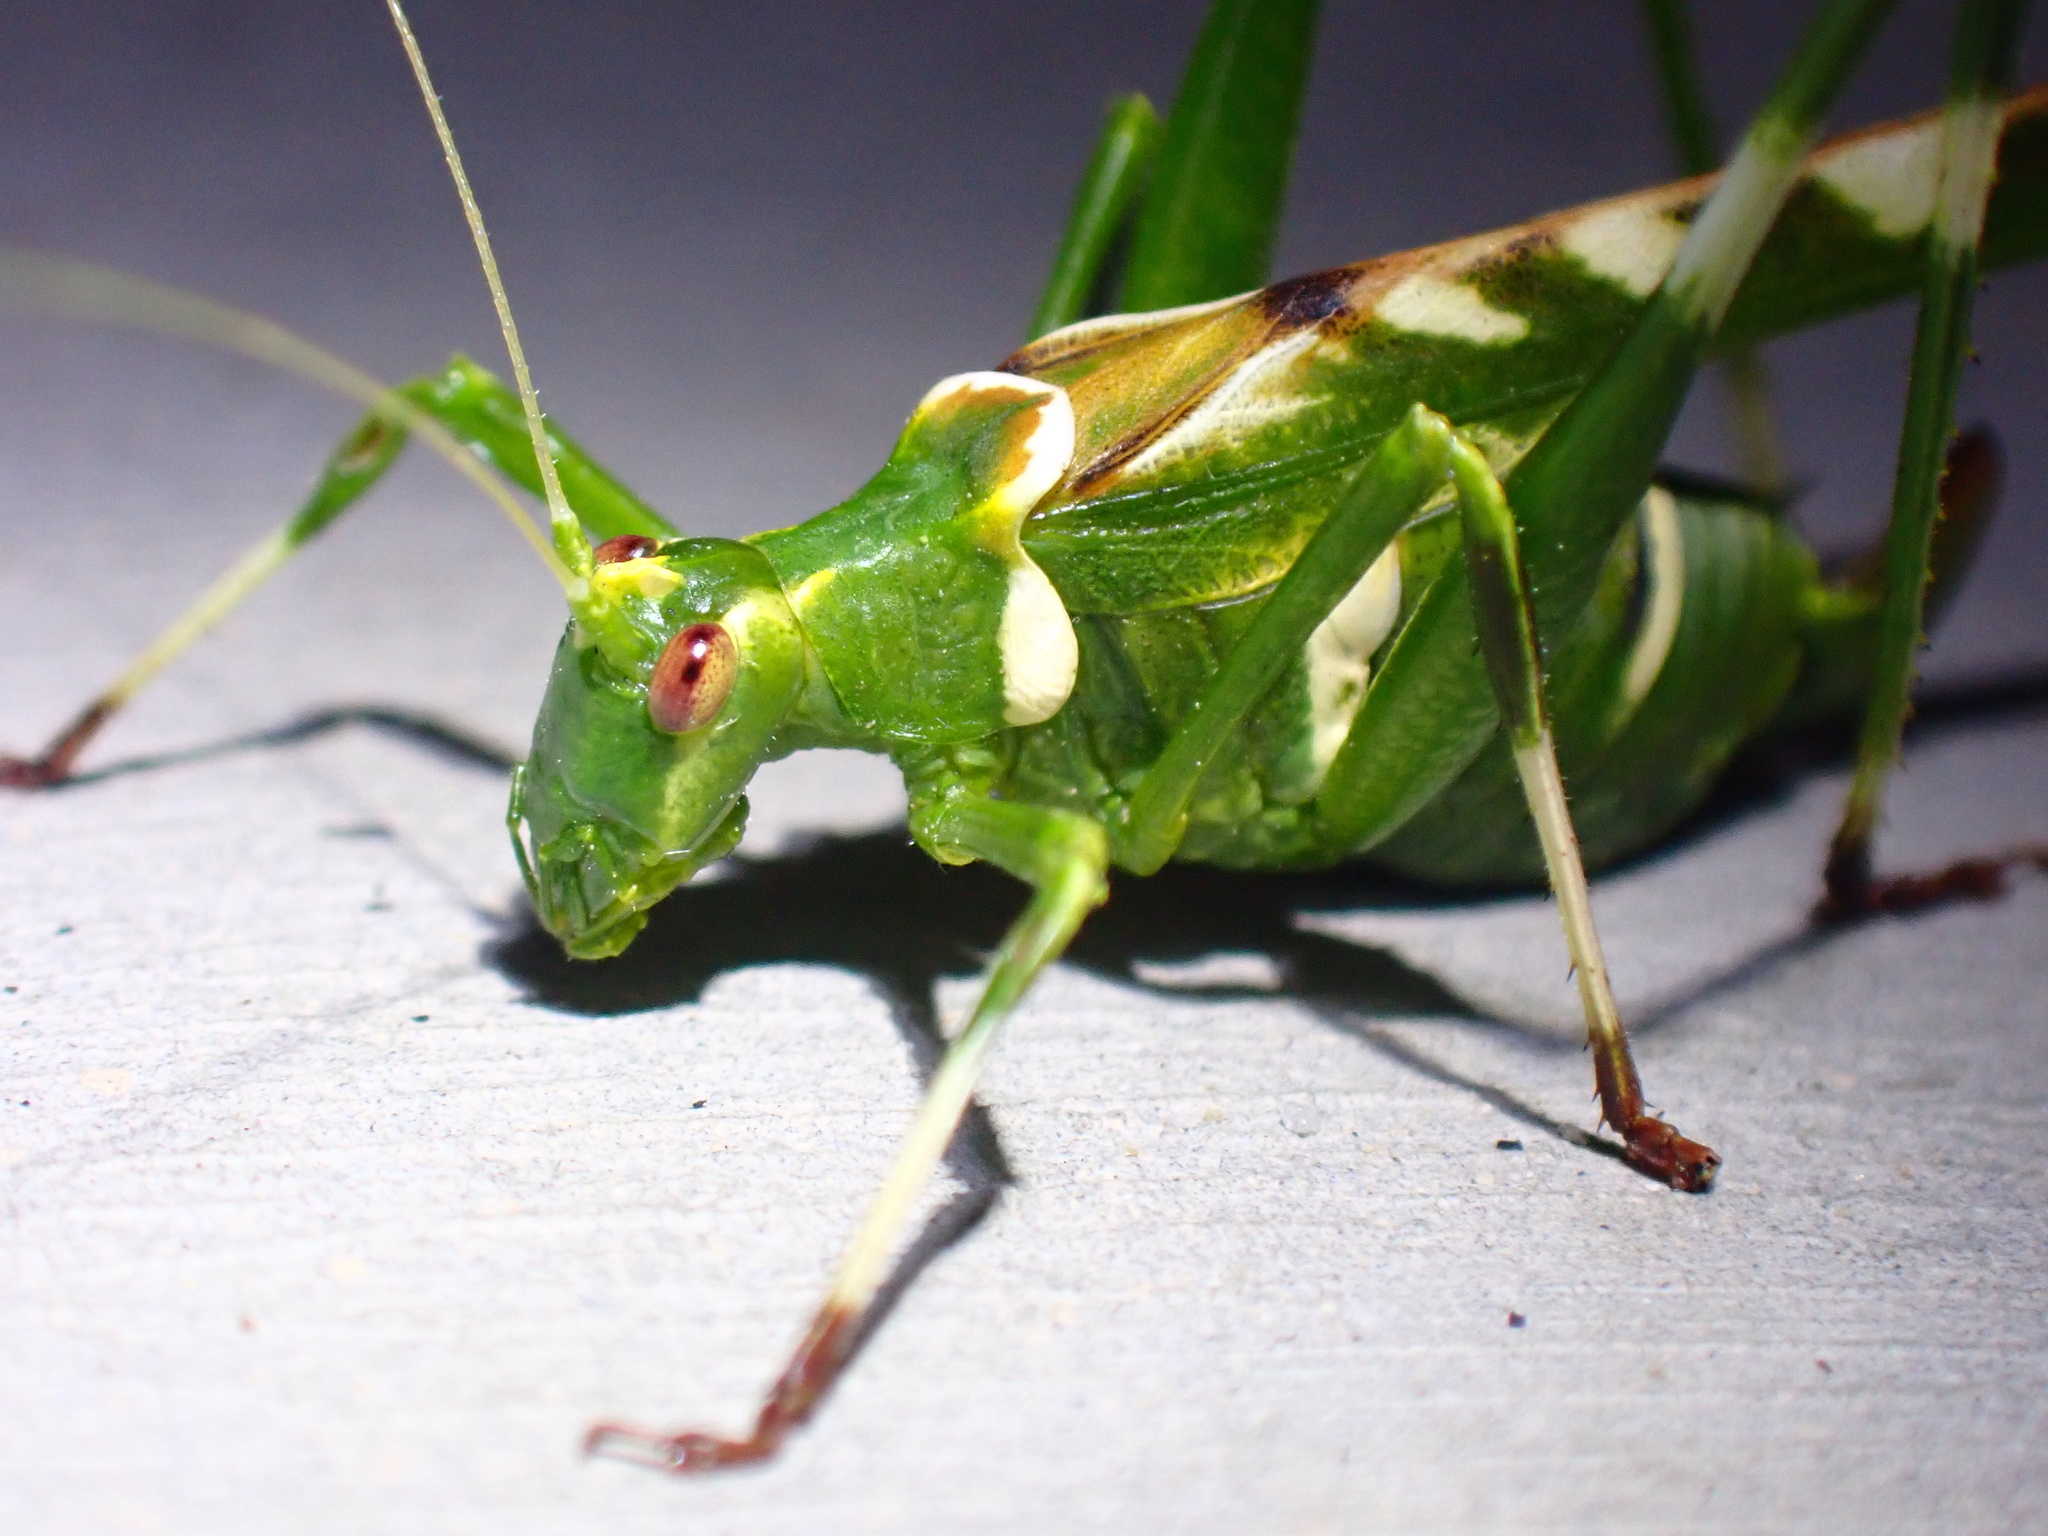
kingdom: Animalia
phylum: Arthropoda
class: Insecta
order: Orthoptera
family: Tettigoniidae
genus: Insara
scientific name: Insara covilleae
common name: Creosote bush katydid
